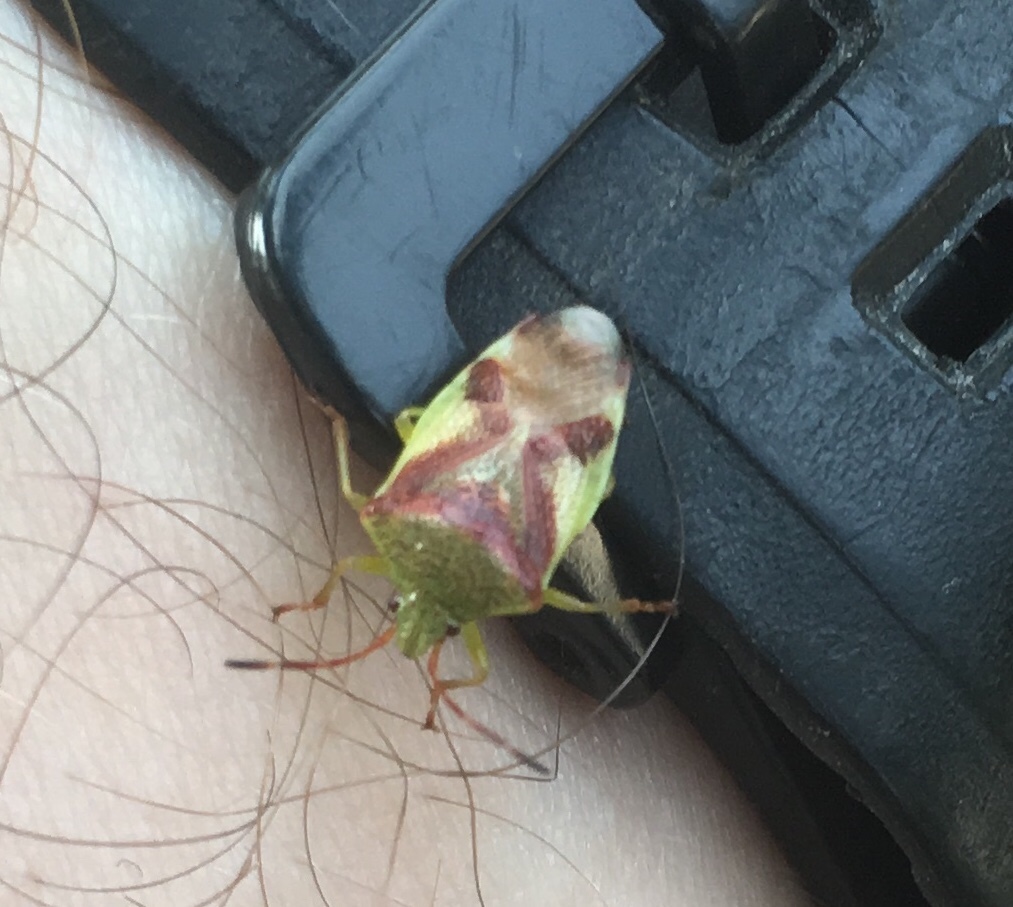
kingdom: Animalia
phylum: Arthropoda
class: Insecta
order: Hemiptera
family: Acanthosomatidae
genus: Elasmostethus
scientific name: Elasmostethus cruciatus
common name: Red-cross shield bug
